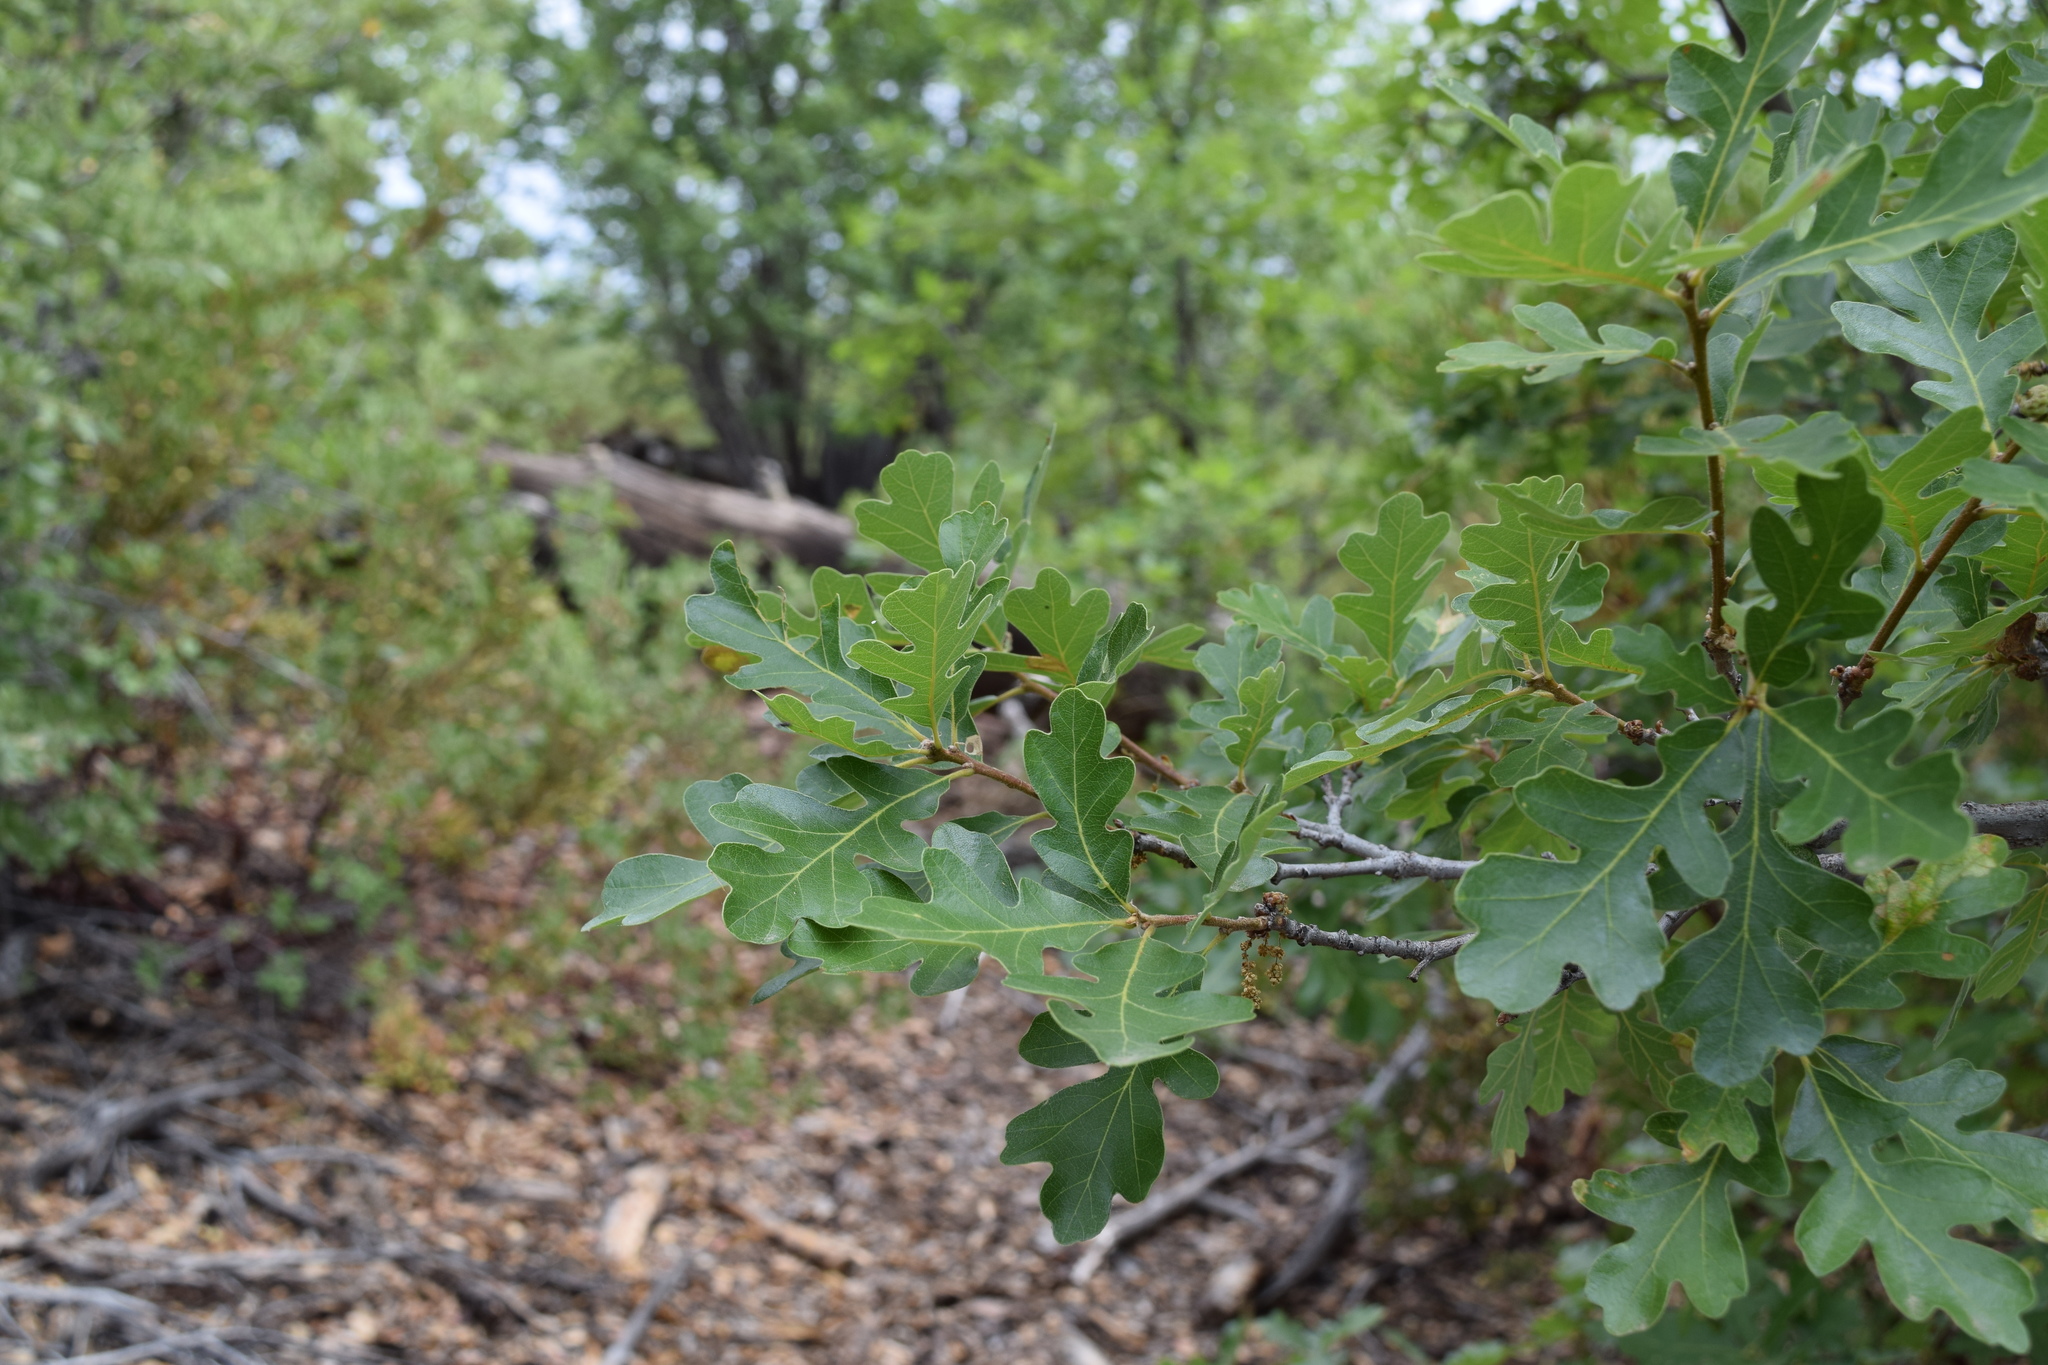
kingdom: Plantae
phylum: Tracheophyta
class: Magnoliopsida
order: Fagales
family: Fagaceae
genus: Quercus
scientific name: Quercus gambelii
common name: Gambel oak
